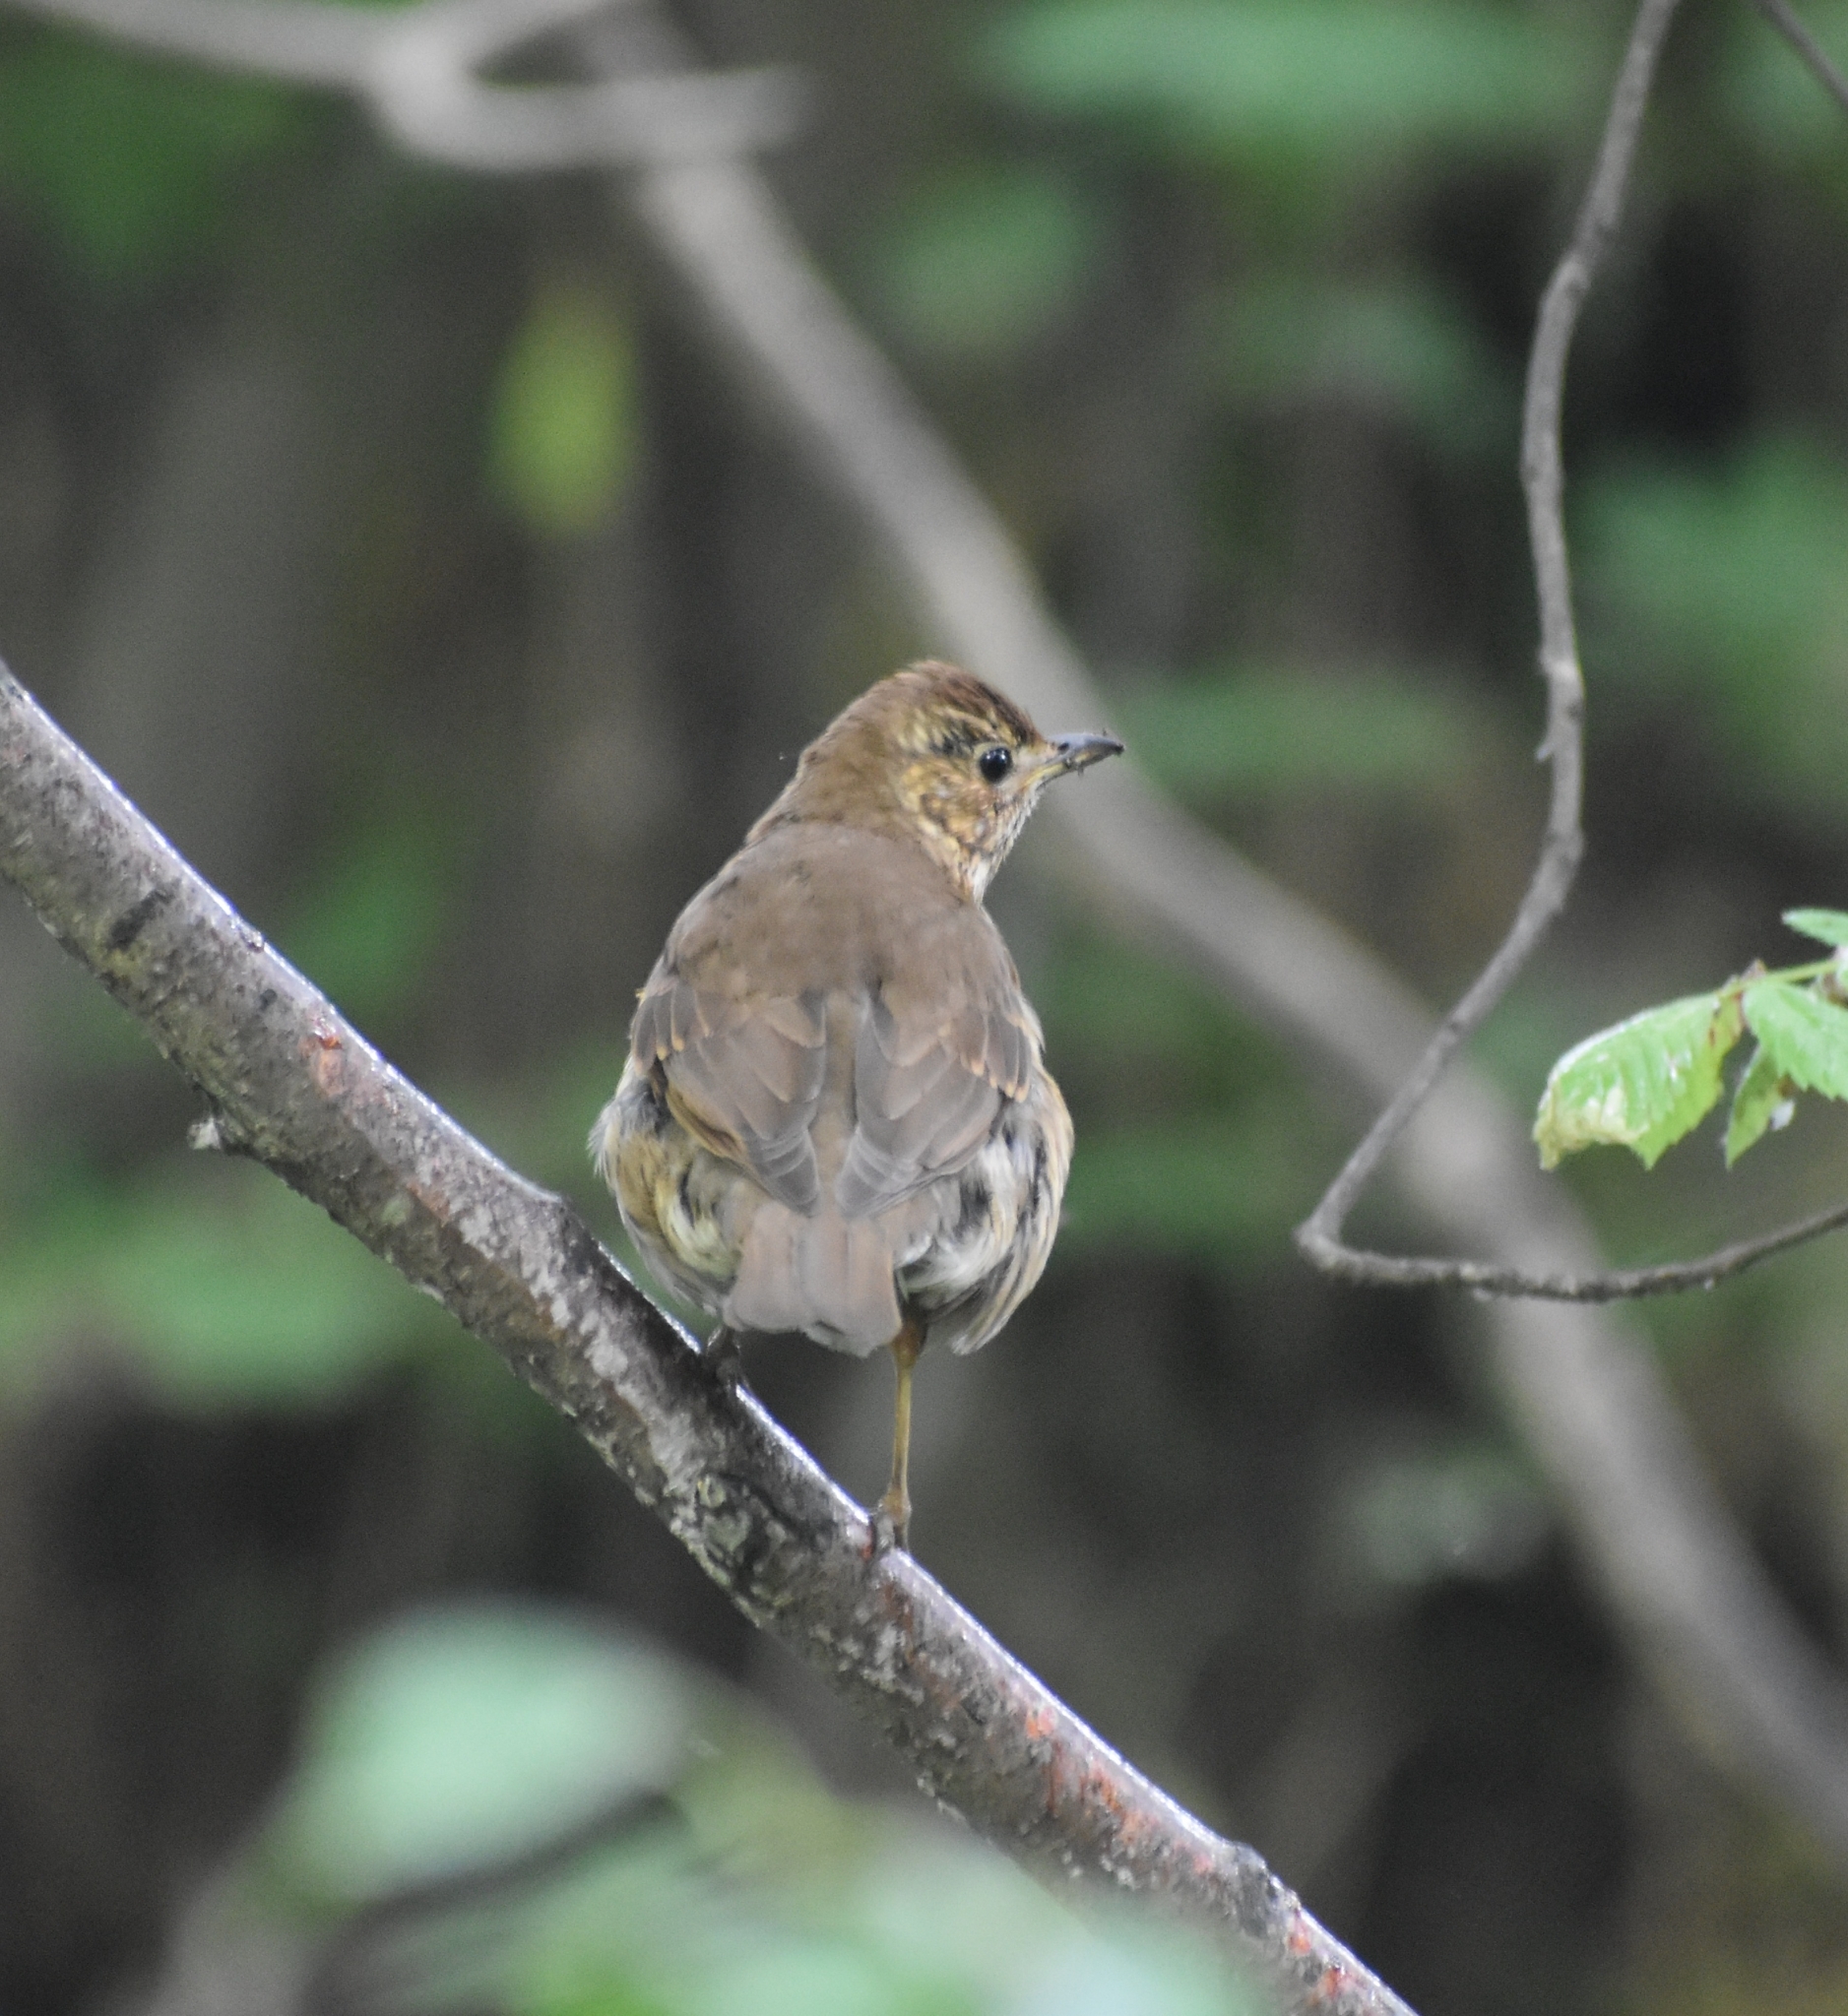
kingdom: Animalia
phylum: Chordata
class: Aves
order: Passeriformes
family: Turdidae
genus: Turdus
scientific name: Turdus philomelos
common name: Song thrush
